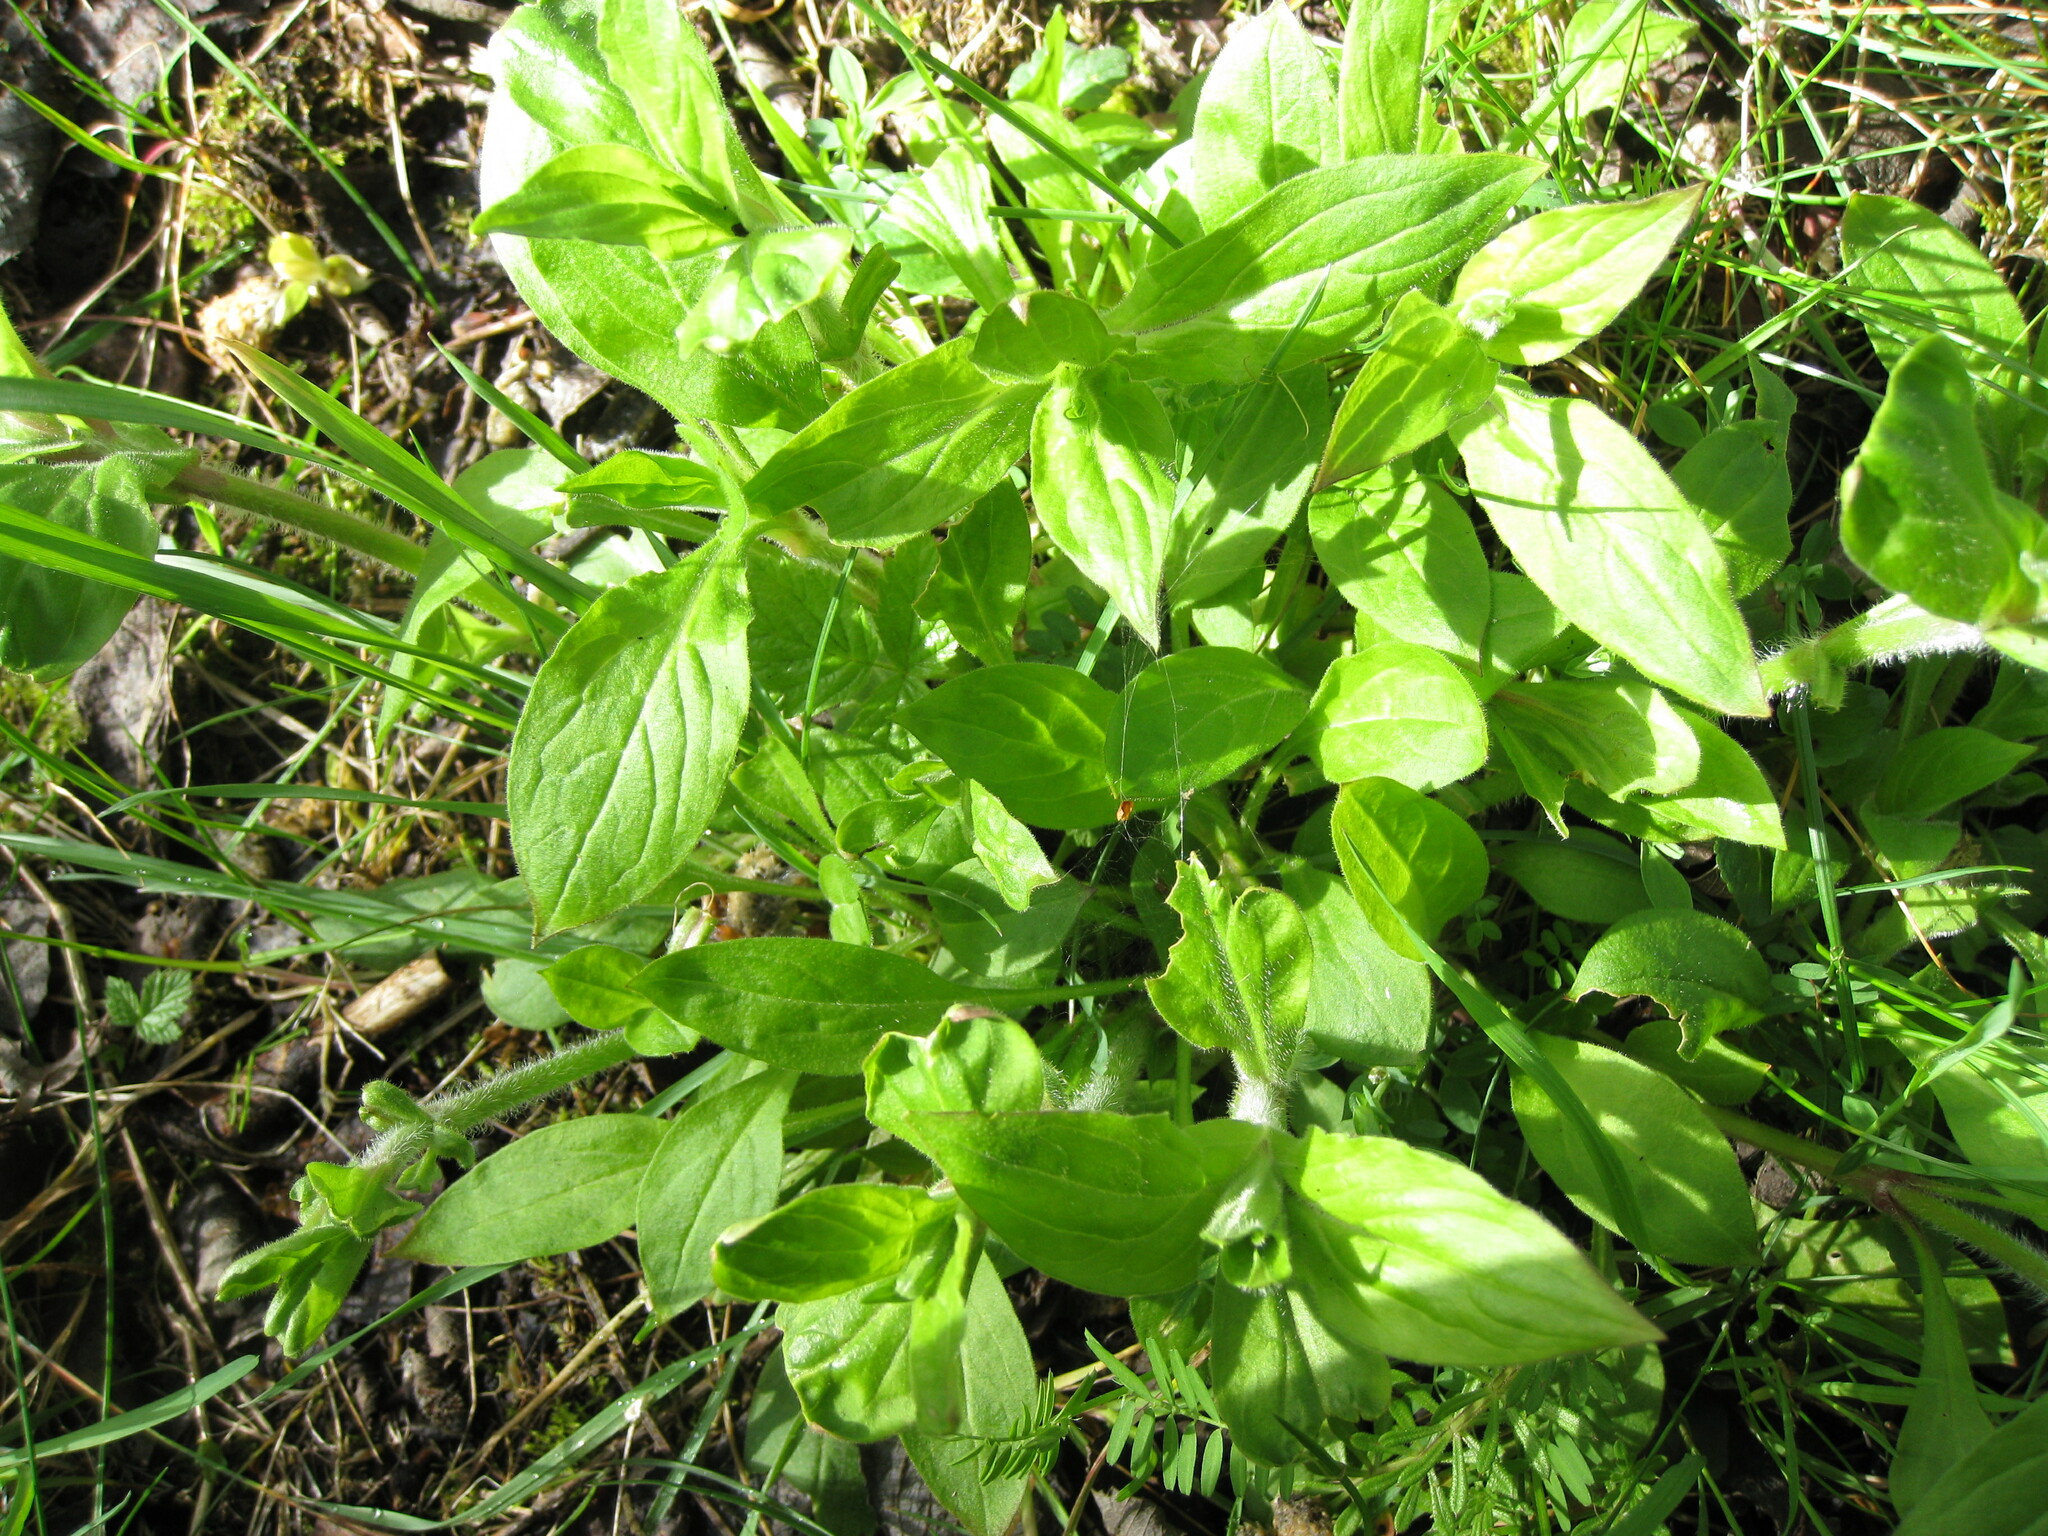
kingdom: Plantae
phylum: Tracheophyta
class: Magnoliopsida
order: Caryophyllales
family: Caryophyllaceae
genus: Silene
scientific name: Silene dioica
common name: Red campion
